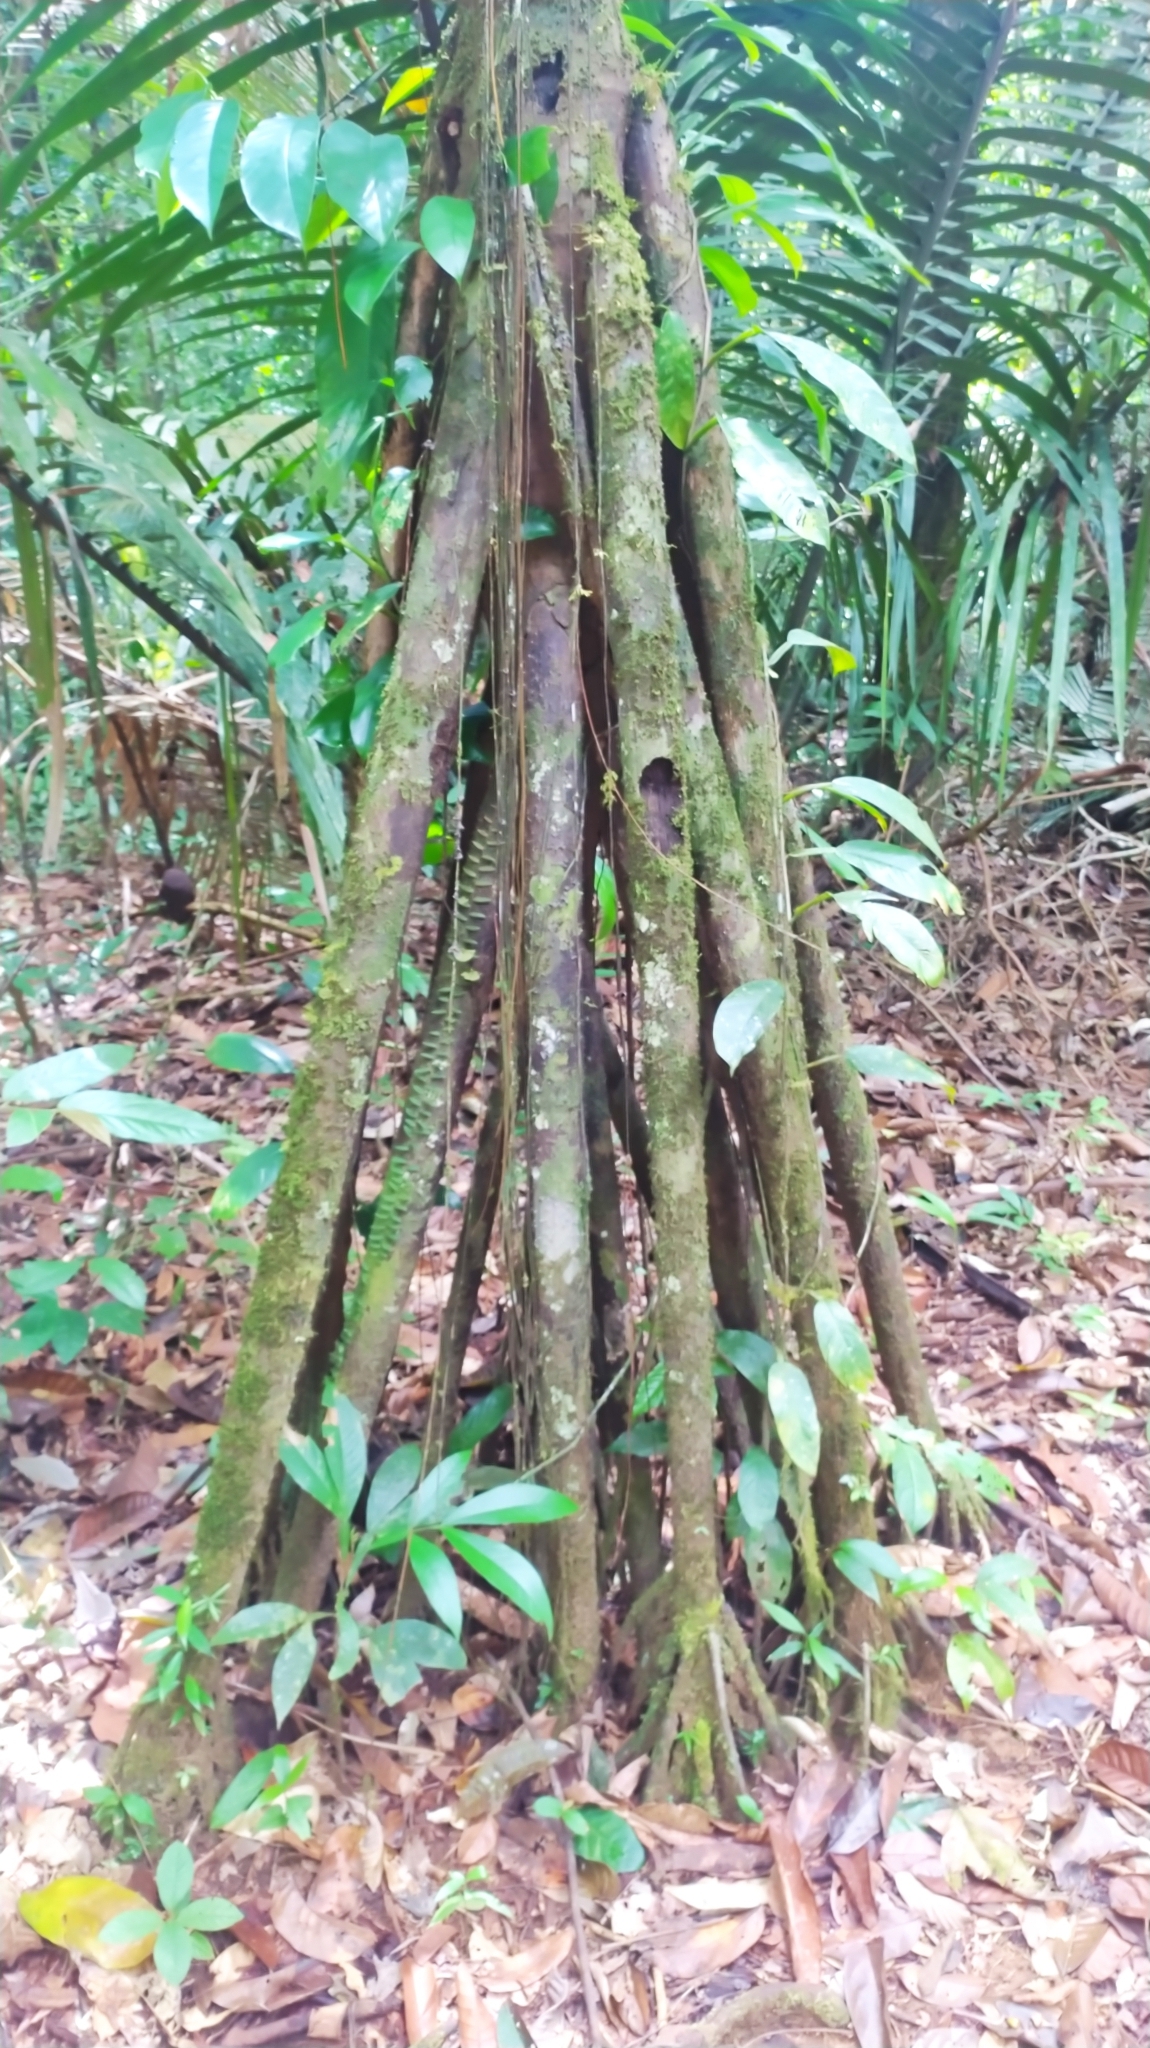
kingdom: Plantae
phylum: Tracheophyta
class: Liliopsida
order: Arecales
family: Arecaceae
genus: Socratea
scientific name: Socratea exorrhiza
